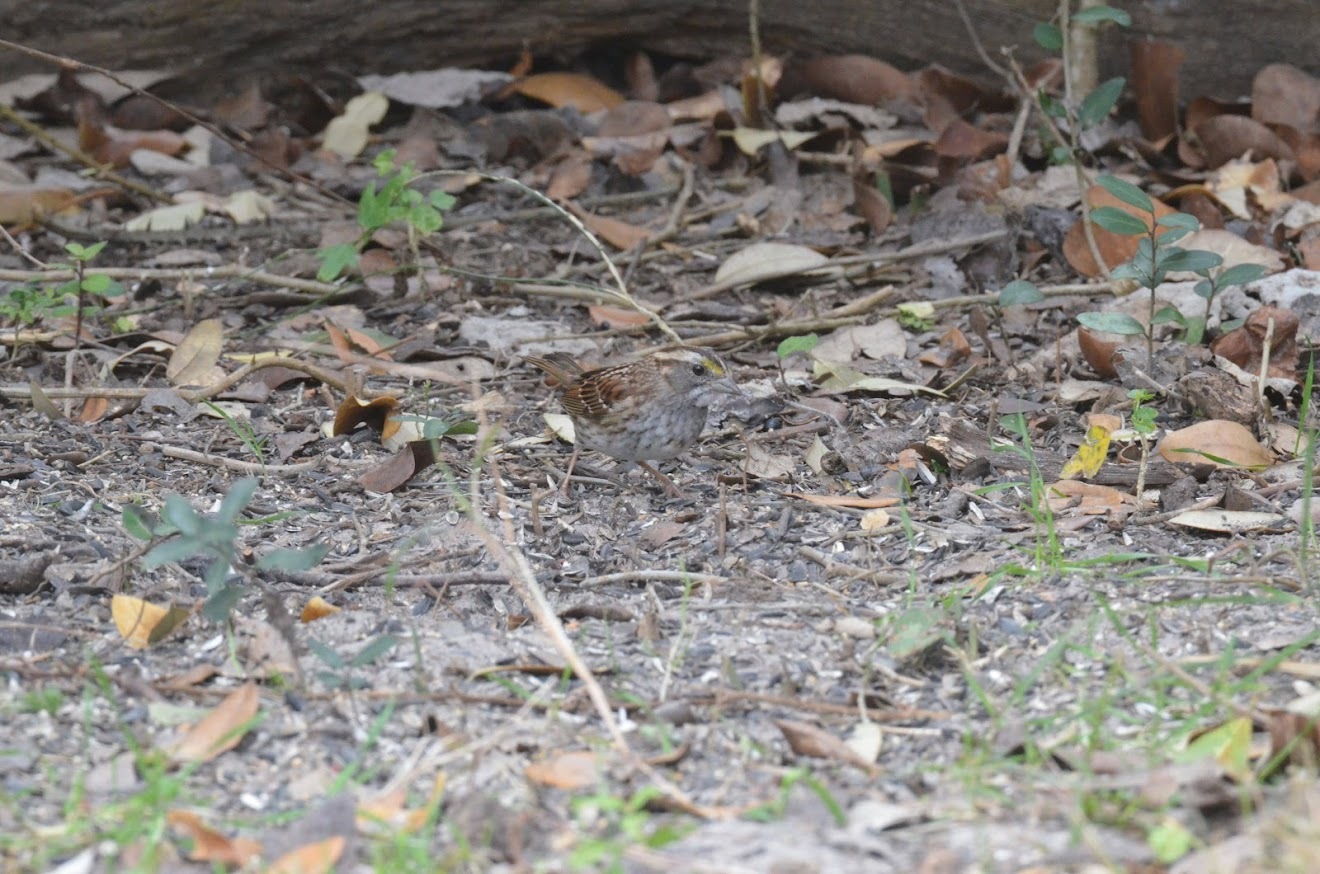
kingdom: Animalia
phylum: Chordata
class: Aves
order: Passeriformes
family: Passerellidae
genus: Zonotrichia
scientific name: Zonotrichia albicollis
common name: White-throated sparrow
